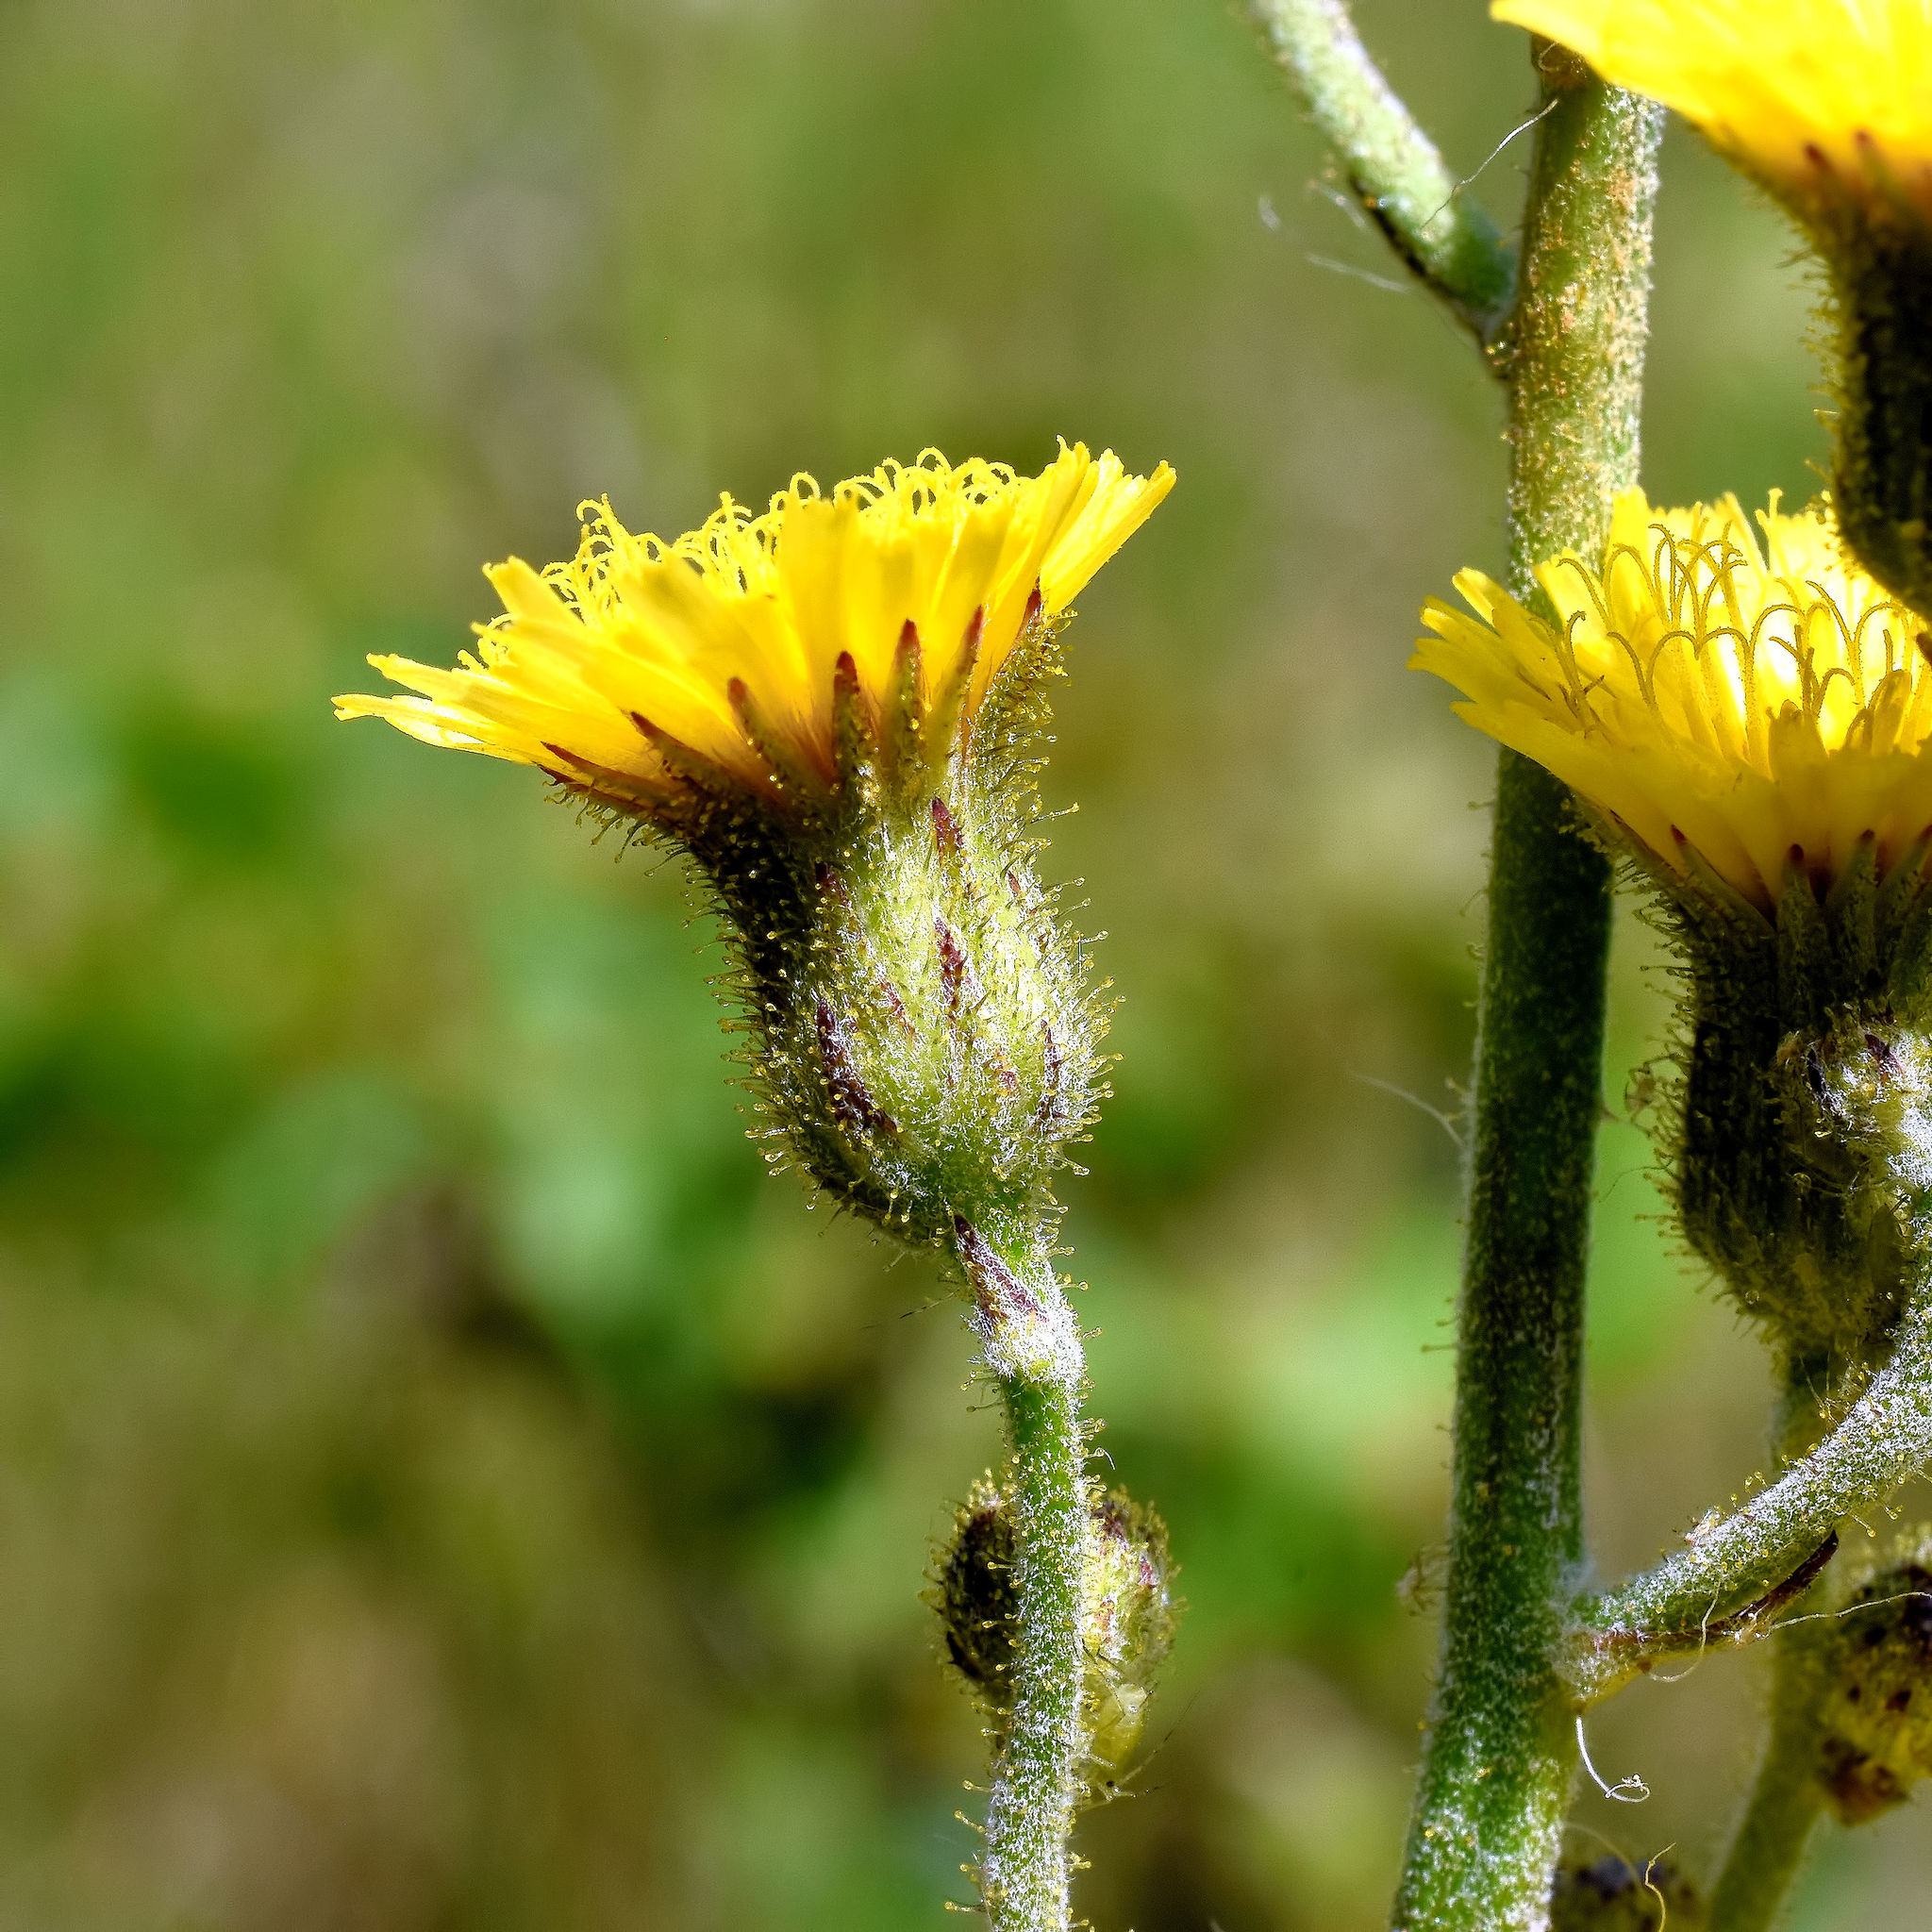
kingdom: Plantae
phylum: Tracheophyta
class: Magnoliopsida
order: Asterales
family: Asteraceae
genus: Hieracium
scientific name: Hieracium longipilum
